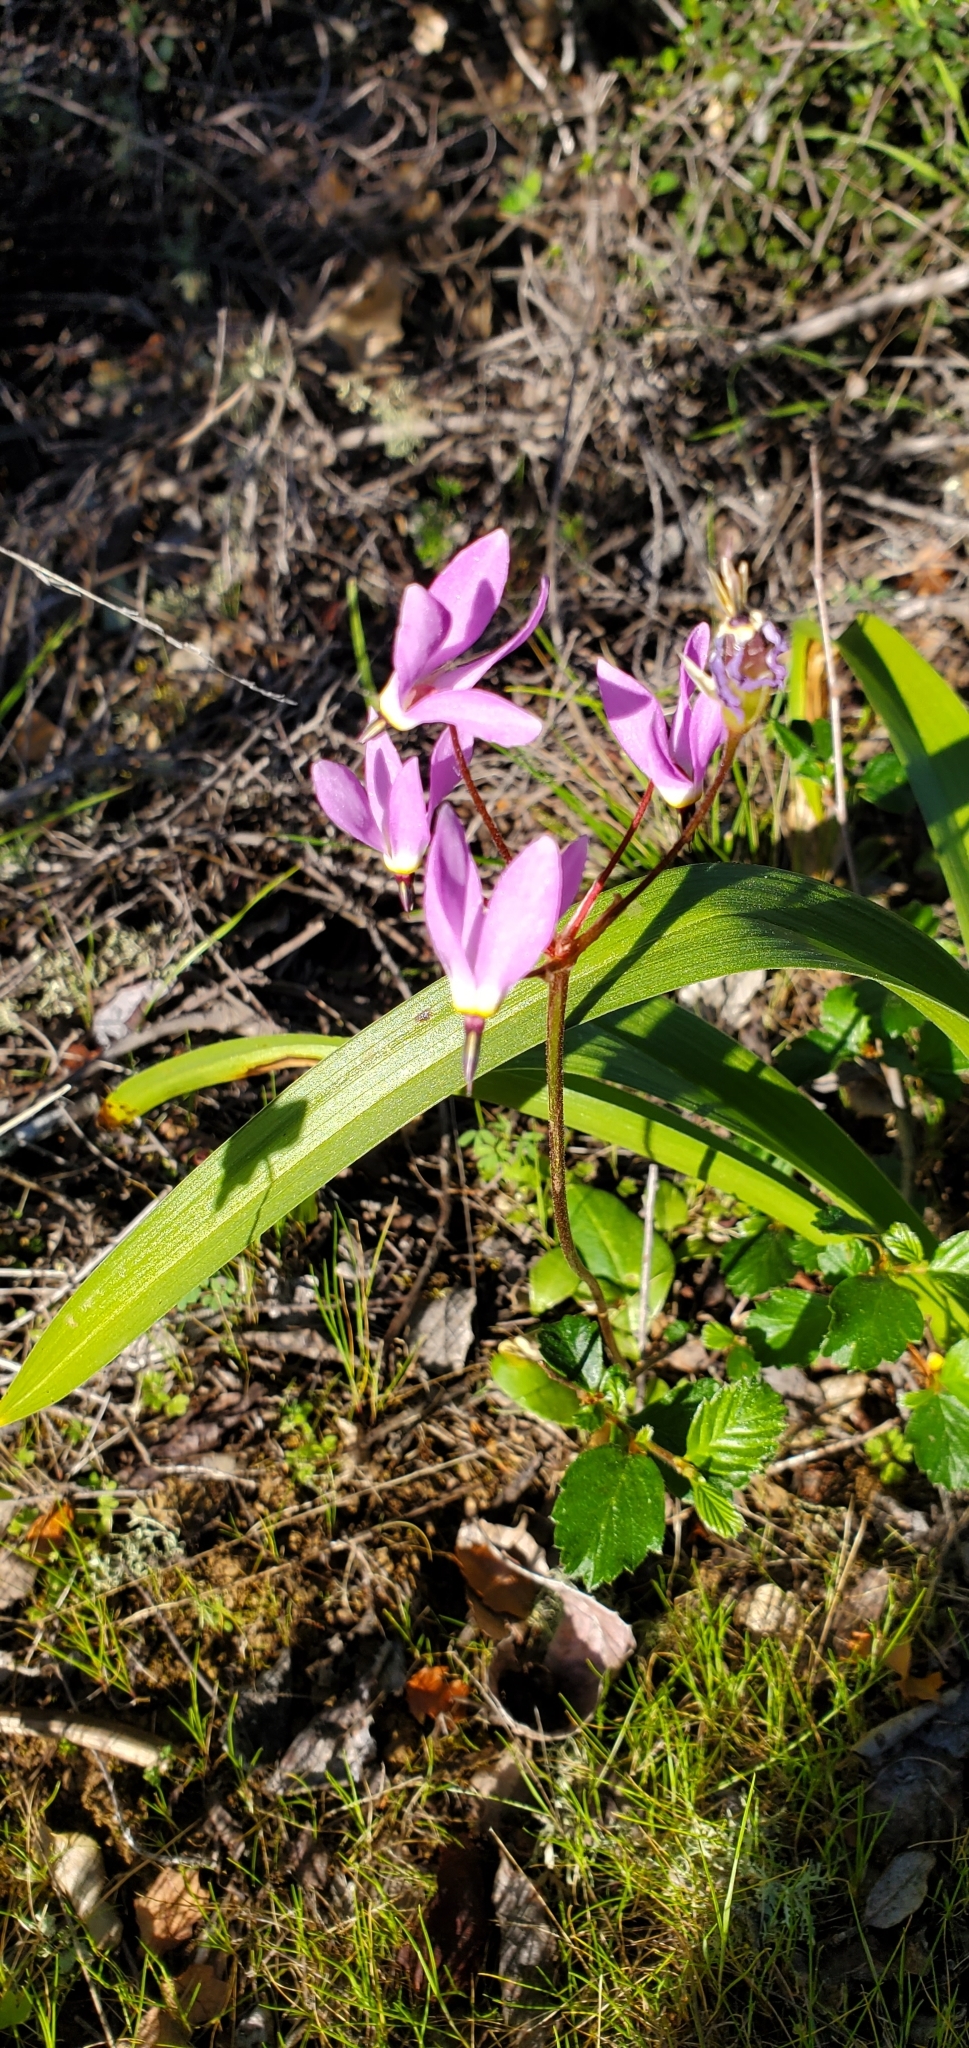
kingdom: Plantae
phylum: Tracheophyta
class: Magnoliopsida
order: Ericales
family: Primulaceae
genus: Dodecatheon
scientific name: Dodecatheon hendersonii
